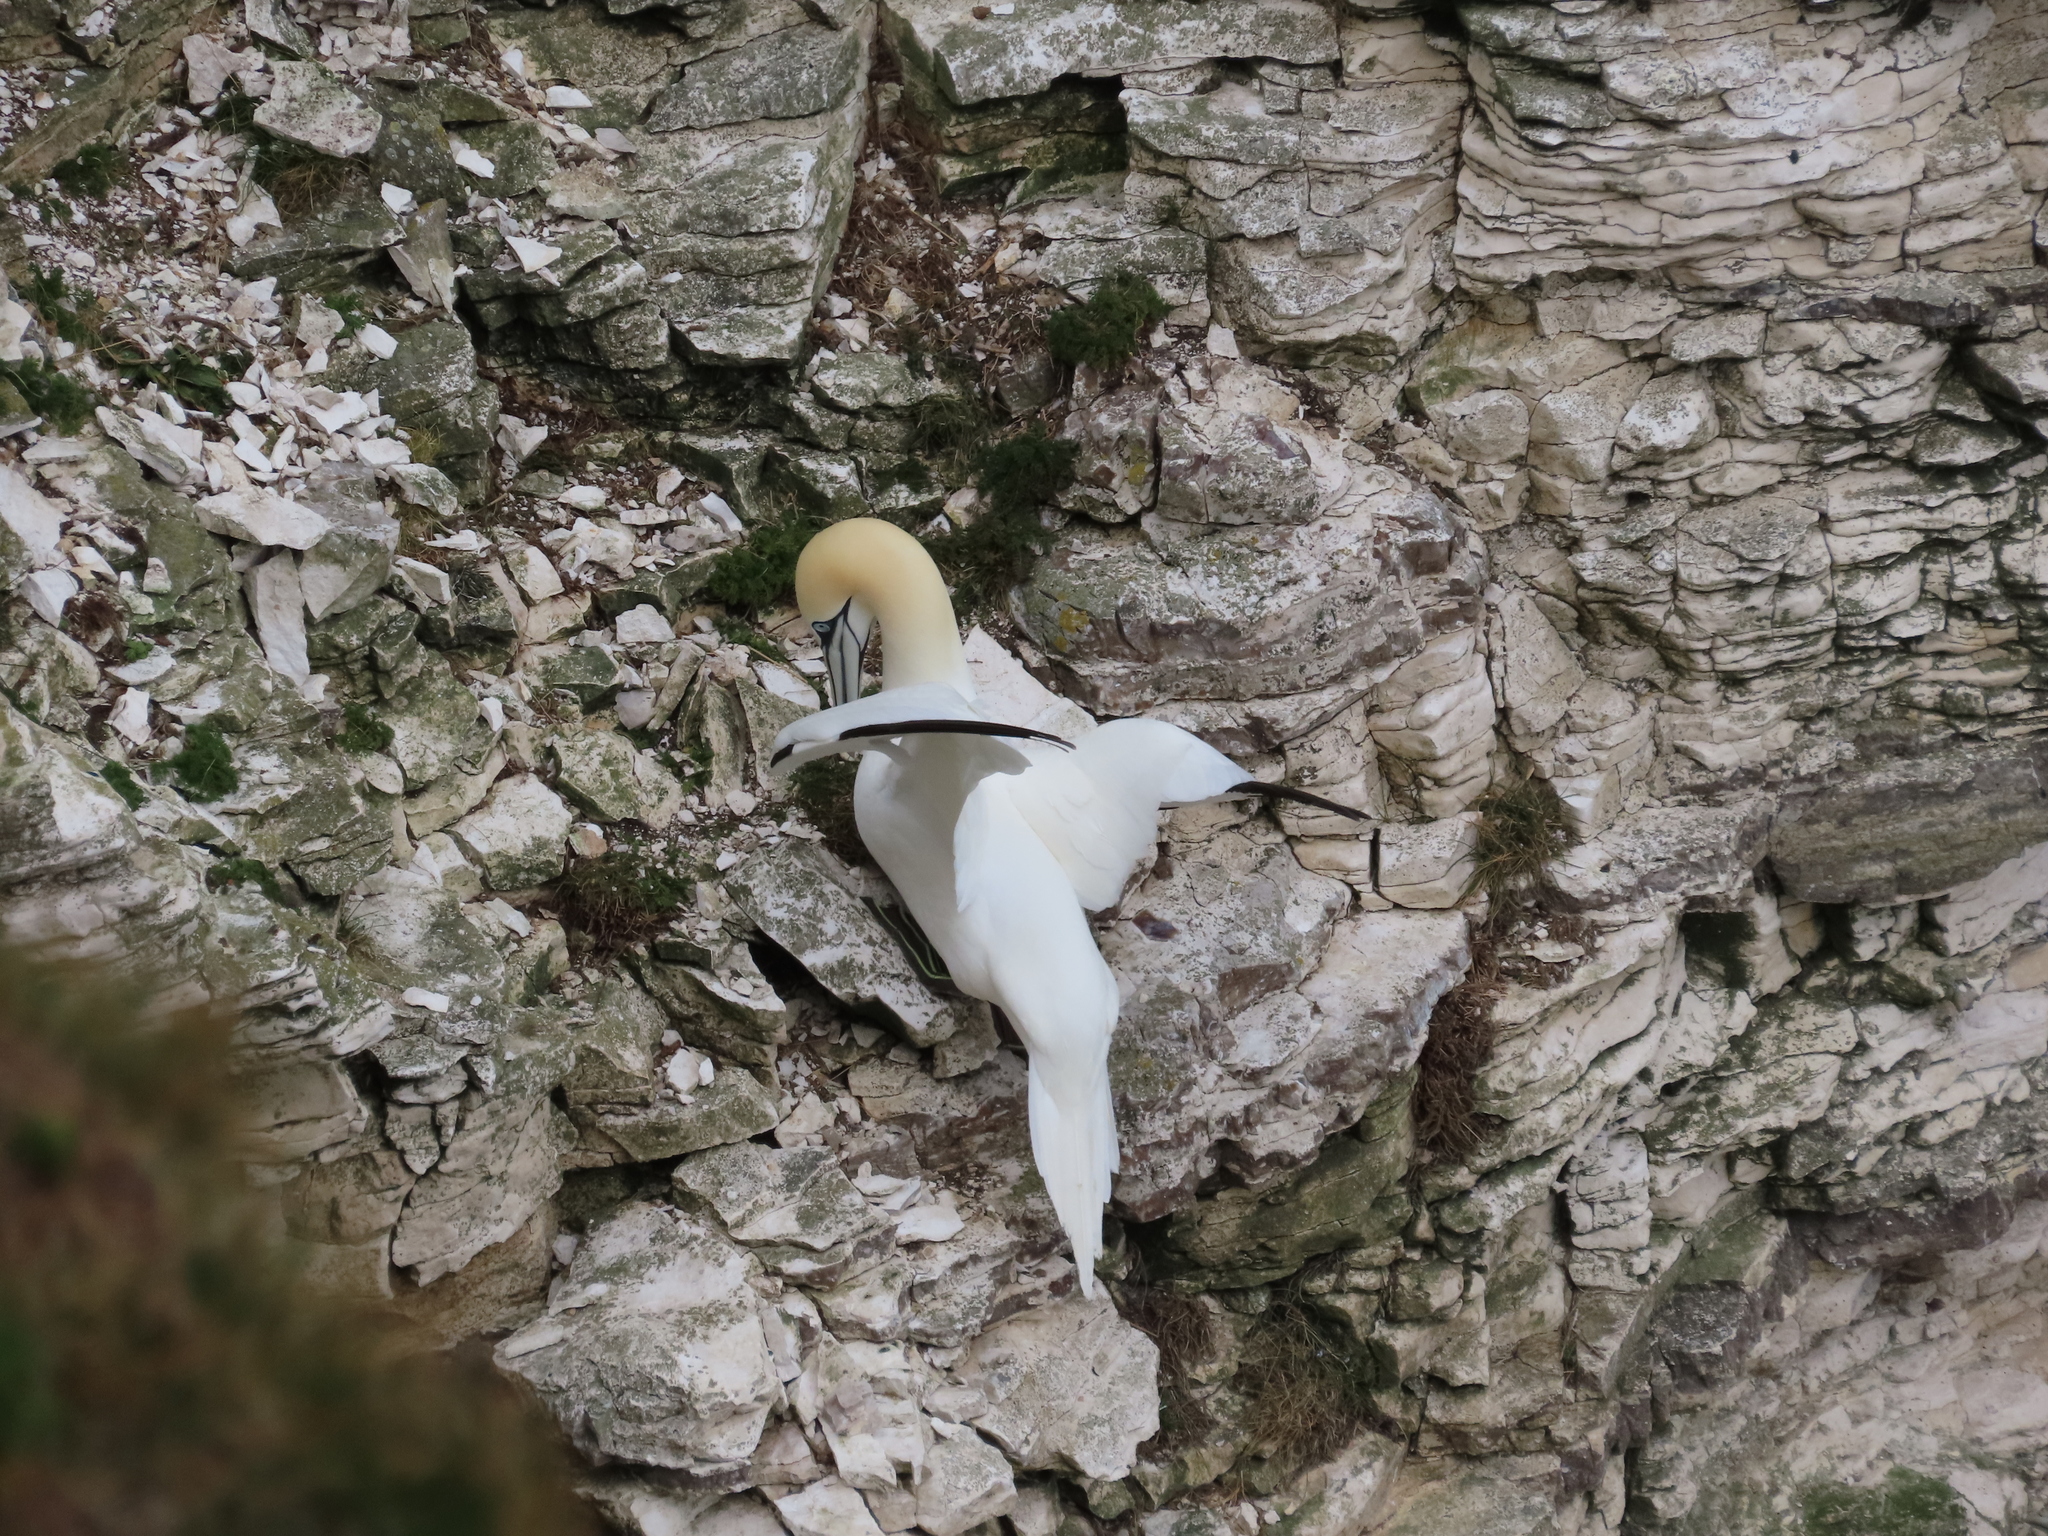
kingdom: Animalia
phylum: Chordata
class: Aves
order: Suliformes
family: Sulidae
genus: Morus
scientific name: Morus bassanus
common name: Northern gannet
